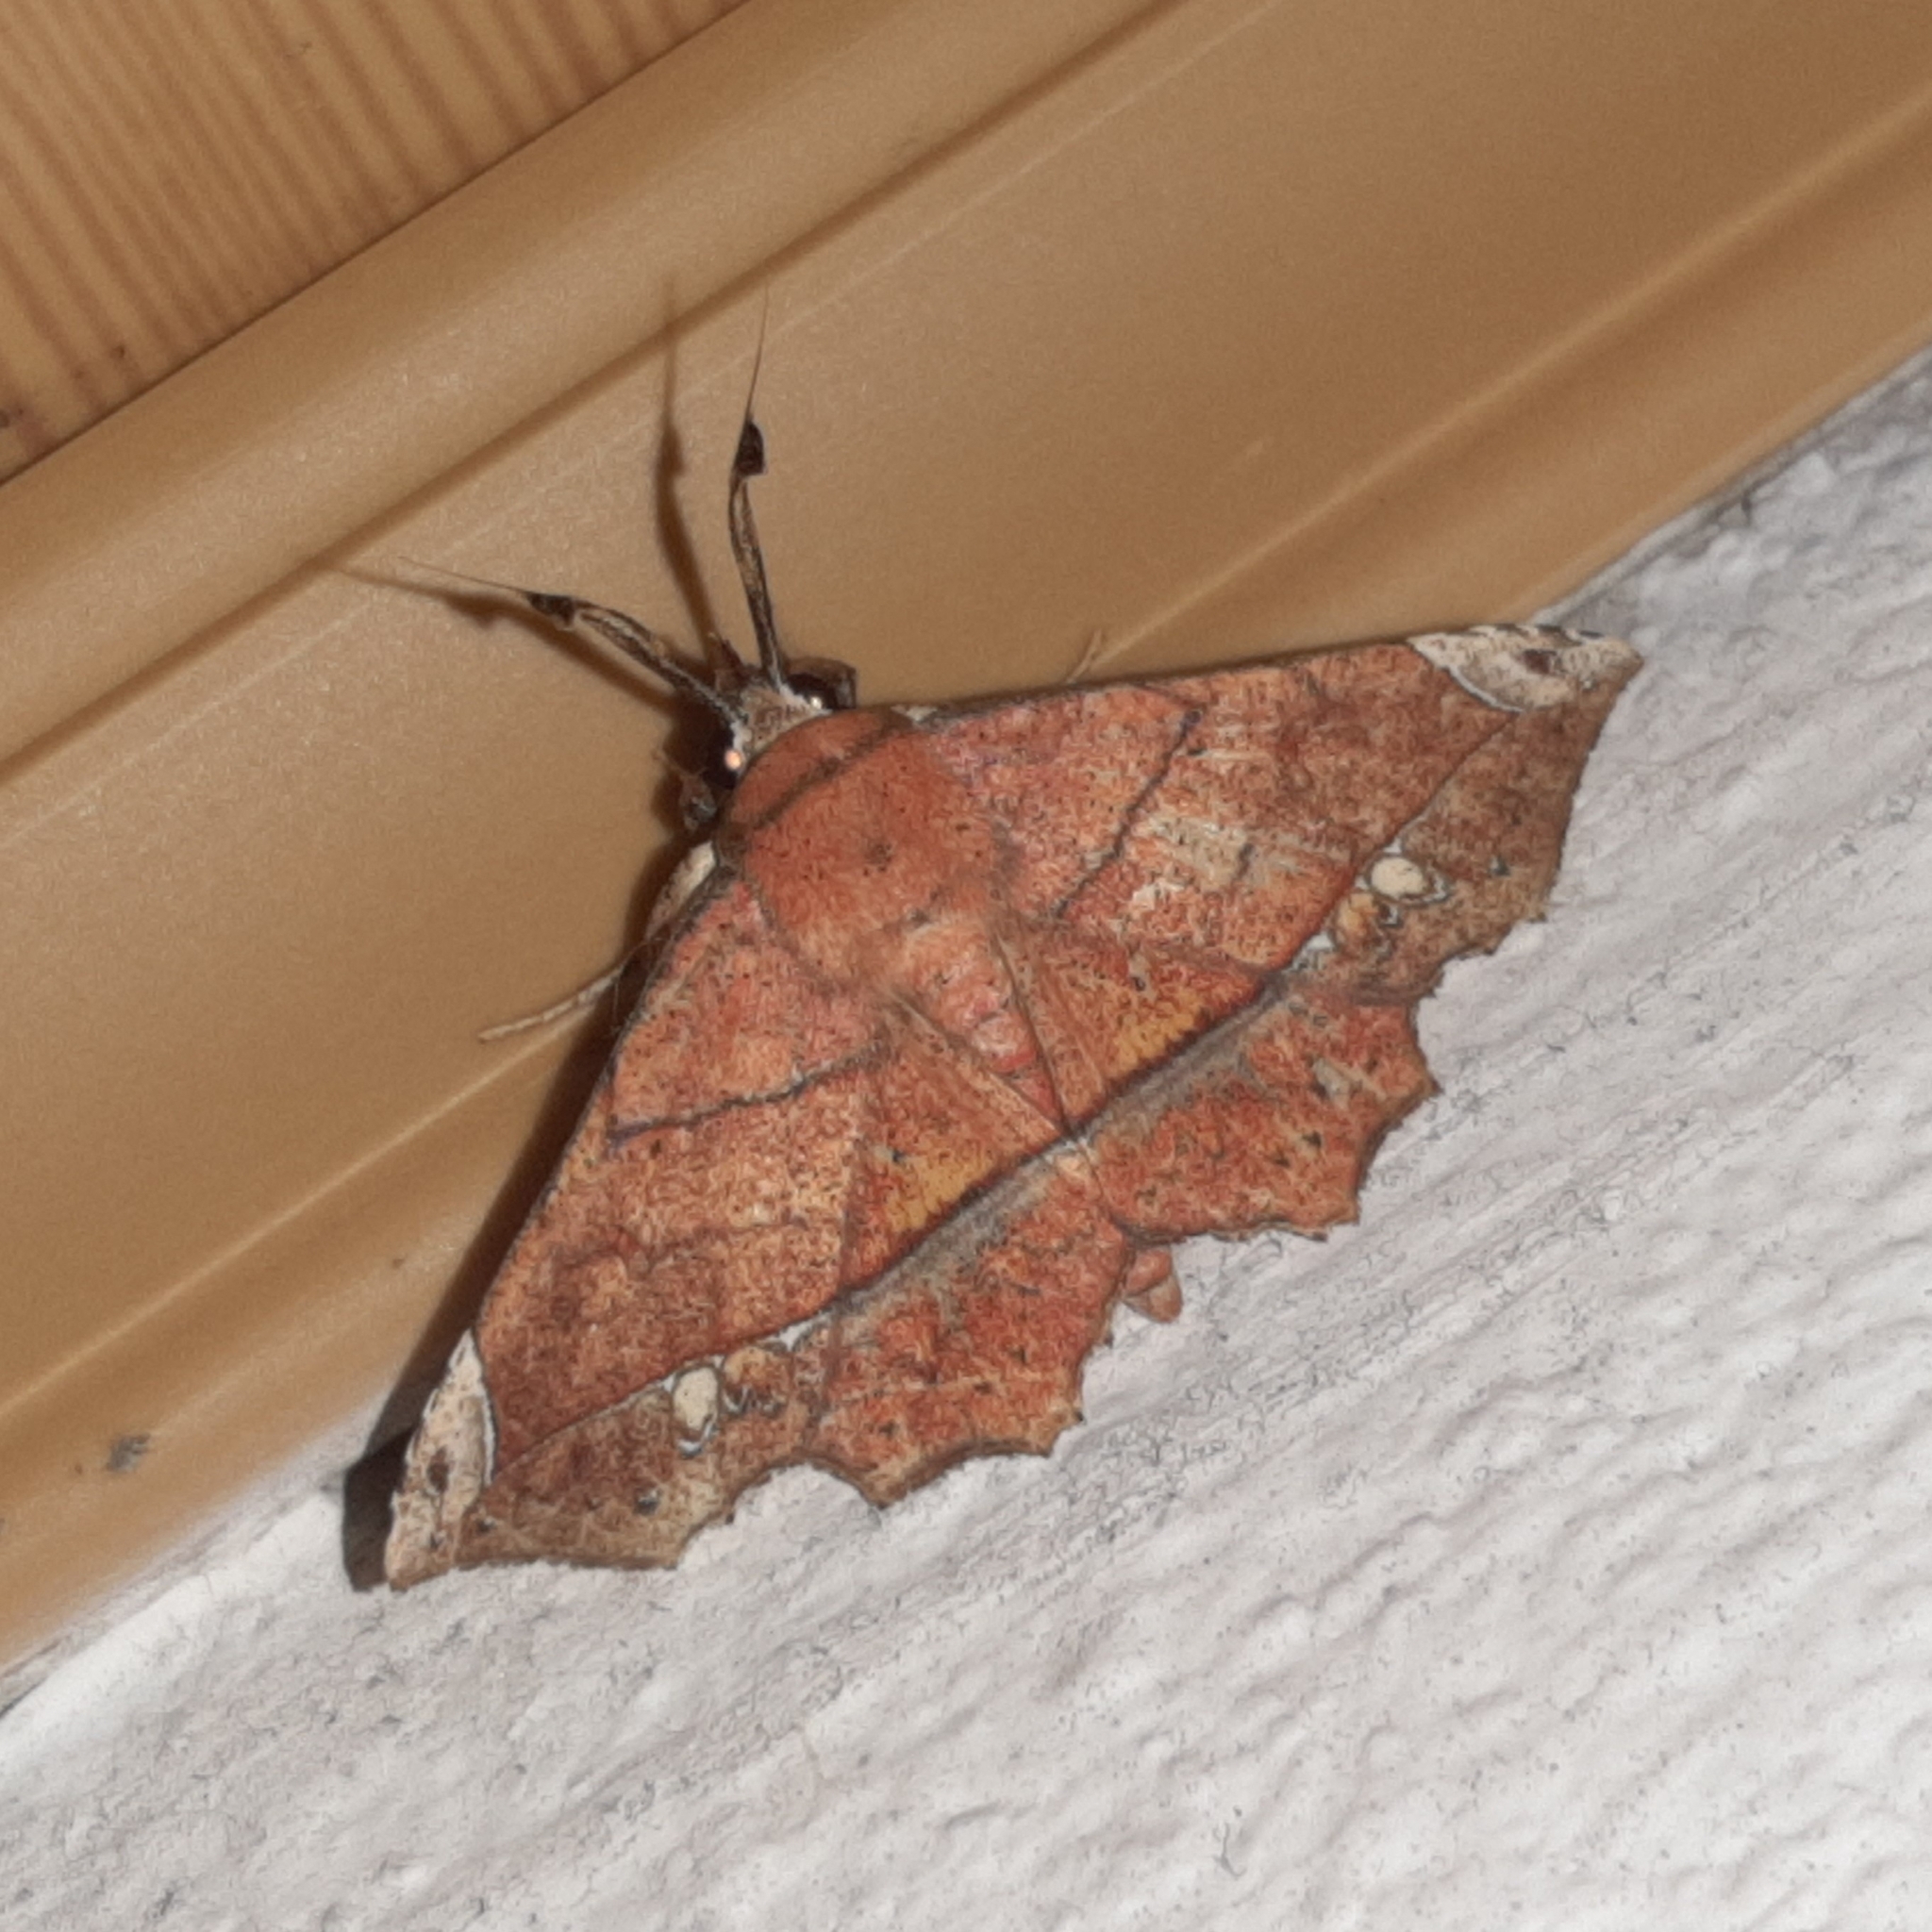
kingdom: Animalia
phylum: Arthropoda
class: Insecta
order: Lepidoptera
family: Erebidae
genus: Syllectra
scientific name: Syllectra erycata
